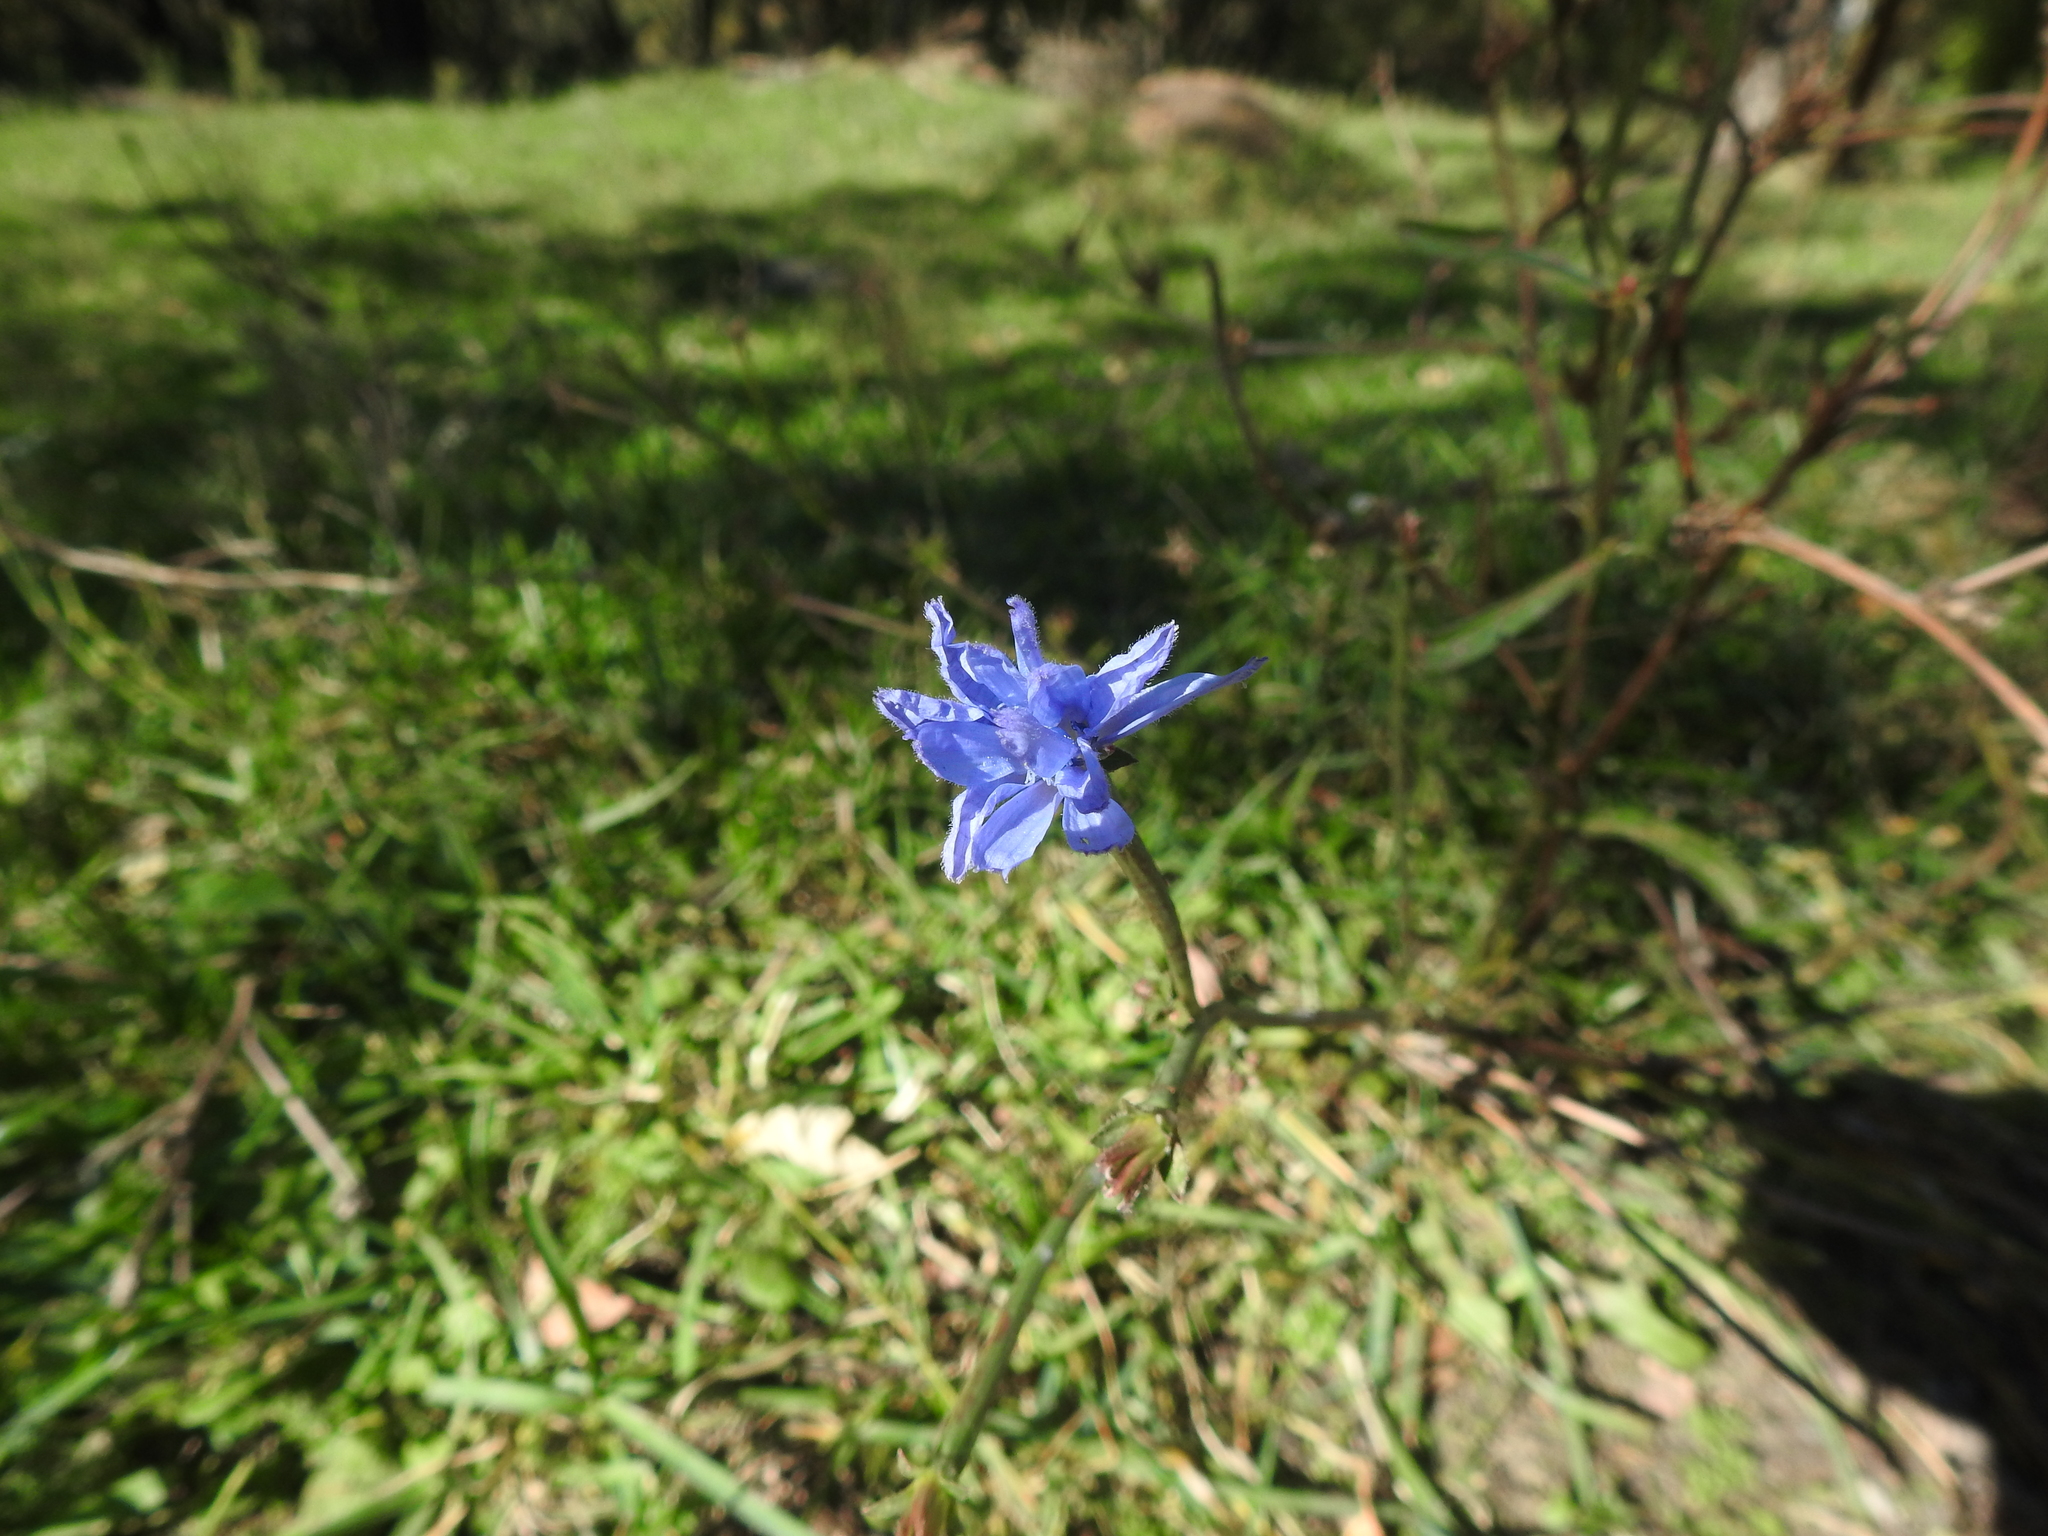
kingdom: Plantae
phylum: Tracheophyta
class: Magnoliopsida
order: Asterales
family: Asteraceae
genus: Cichorium
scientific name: Cichorium intybus
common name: Chicory
